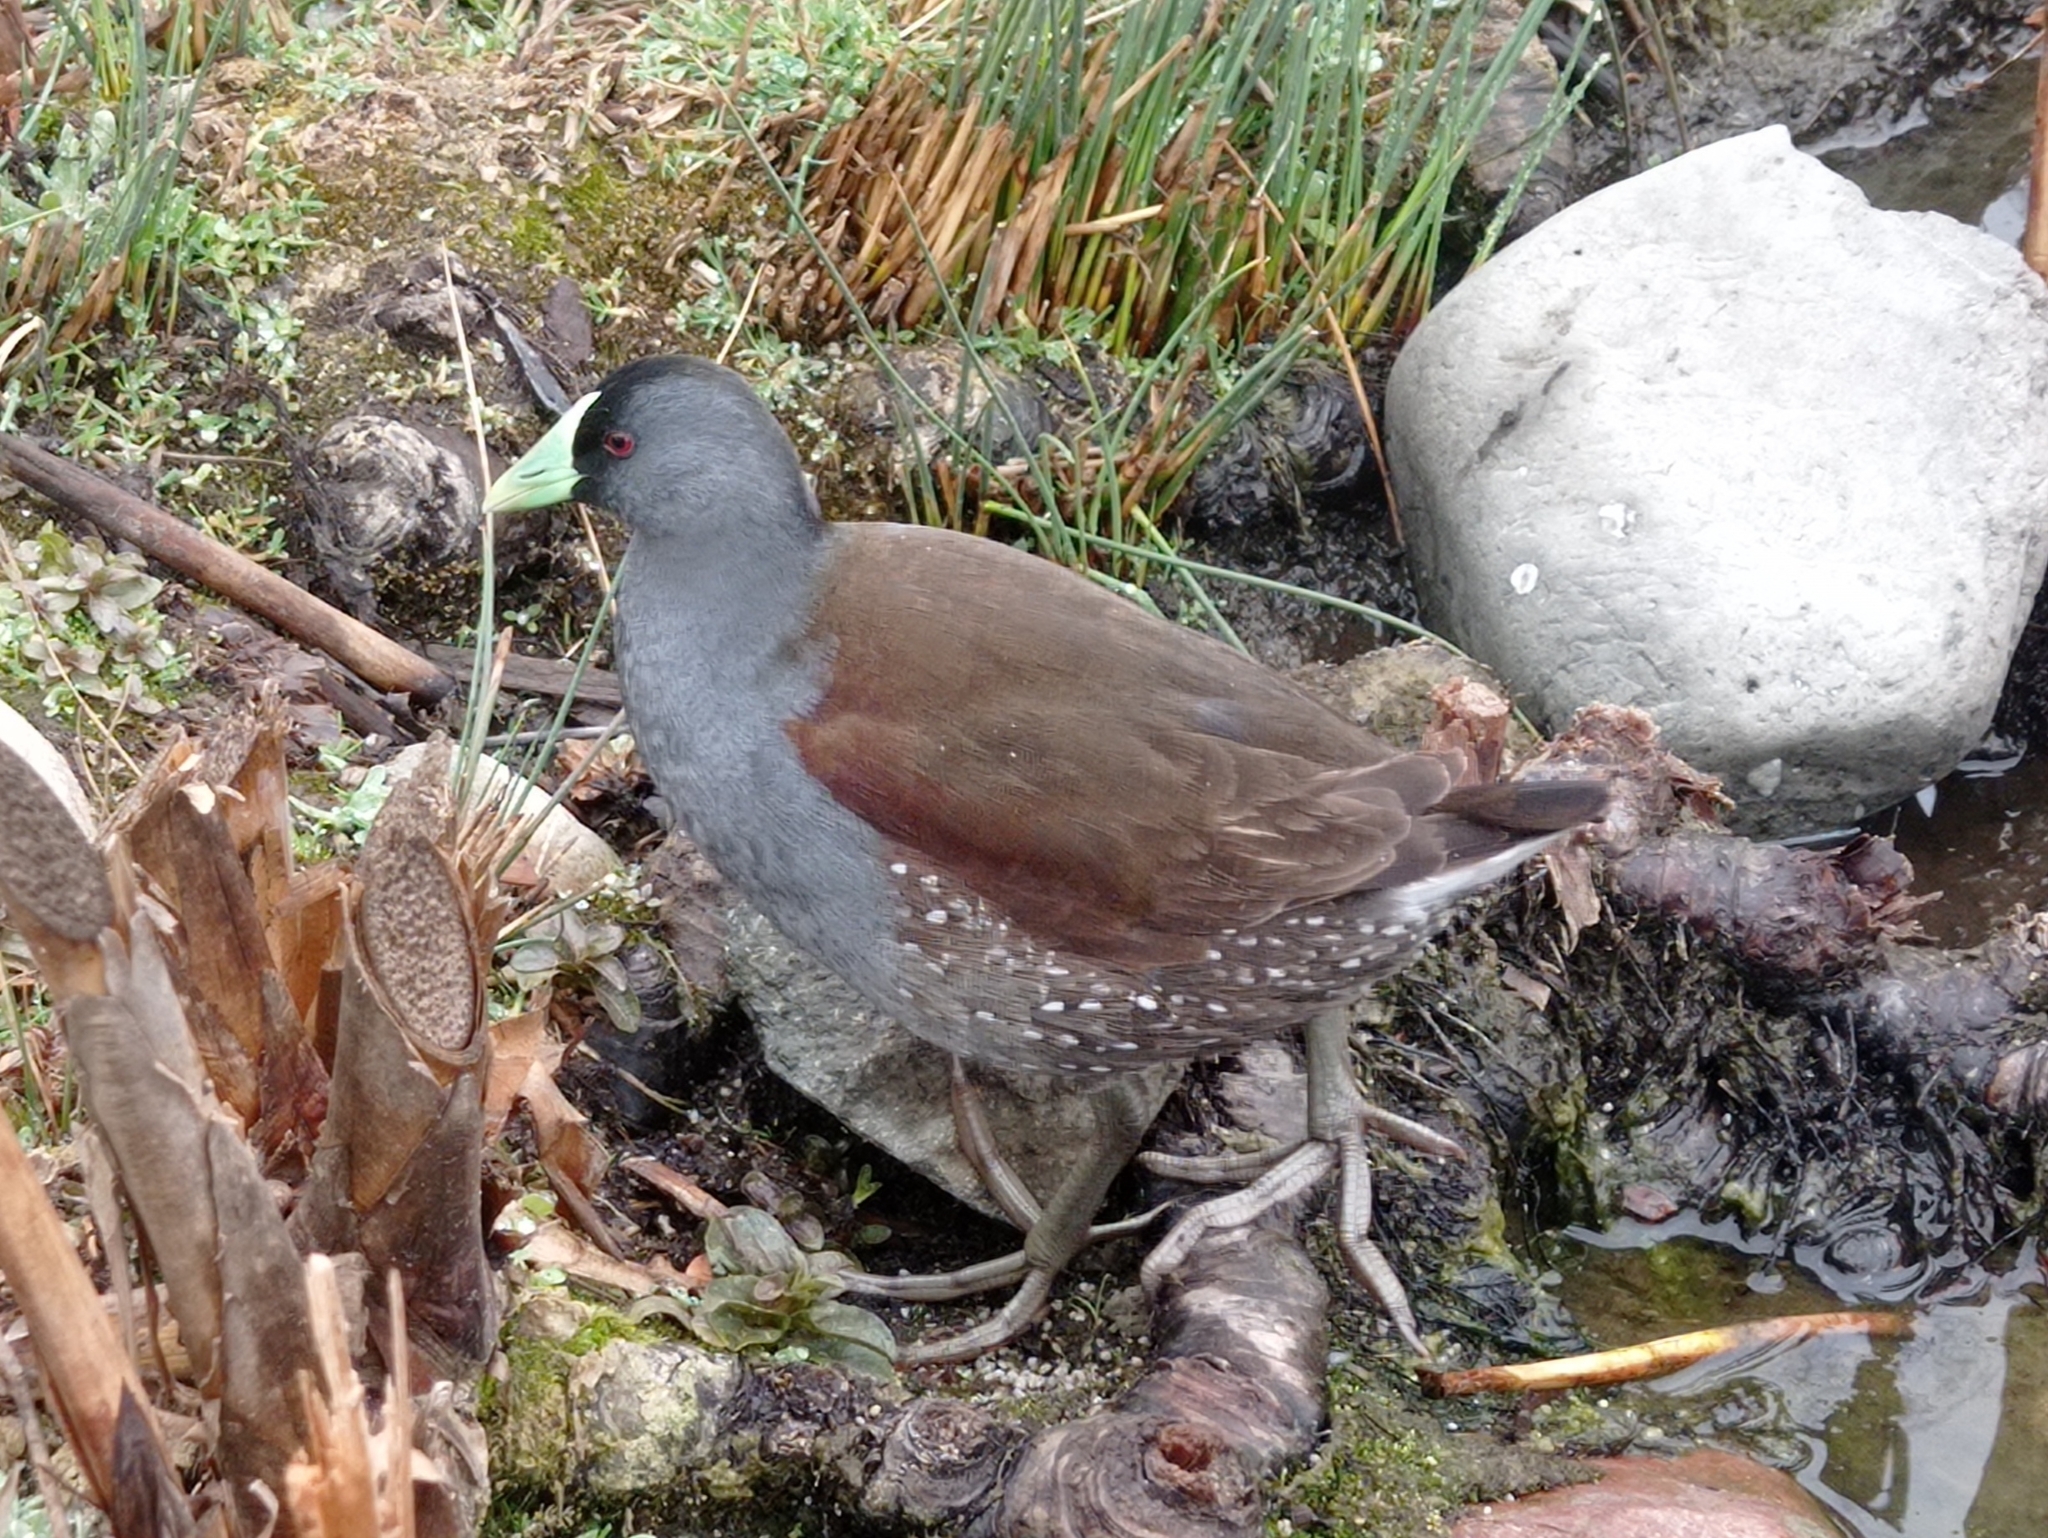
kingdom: Animalia
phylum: Chordata
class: Aves
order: Gruiformes
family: Rallidae
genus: Gallinula
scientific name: Gallinula melanops
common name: Spot-flanked gallinule
